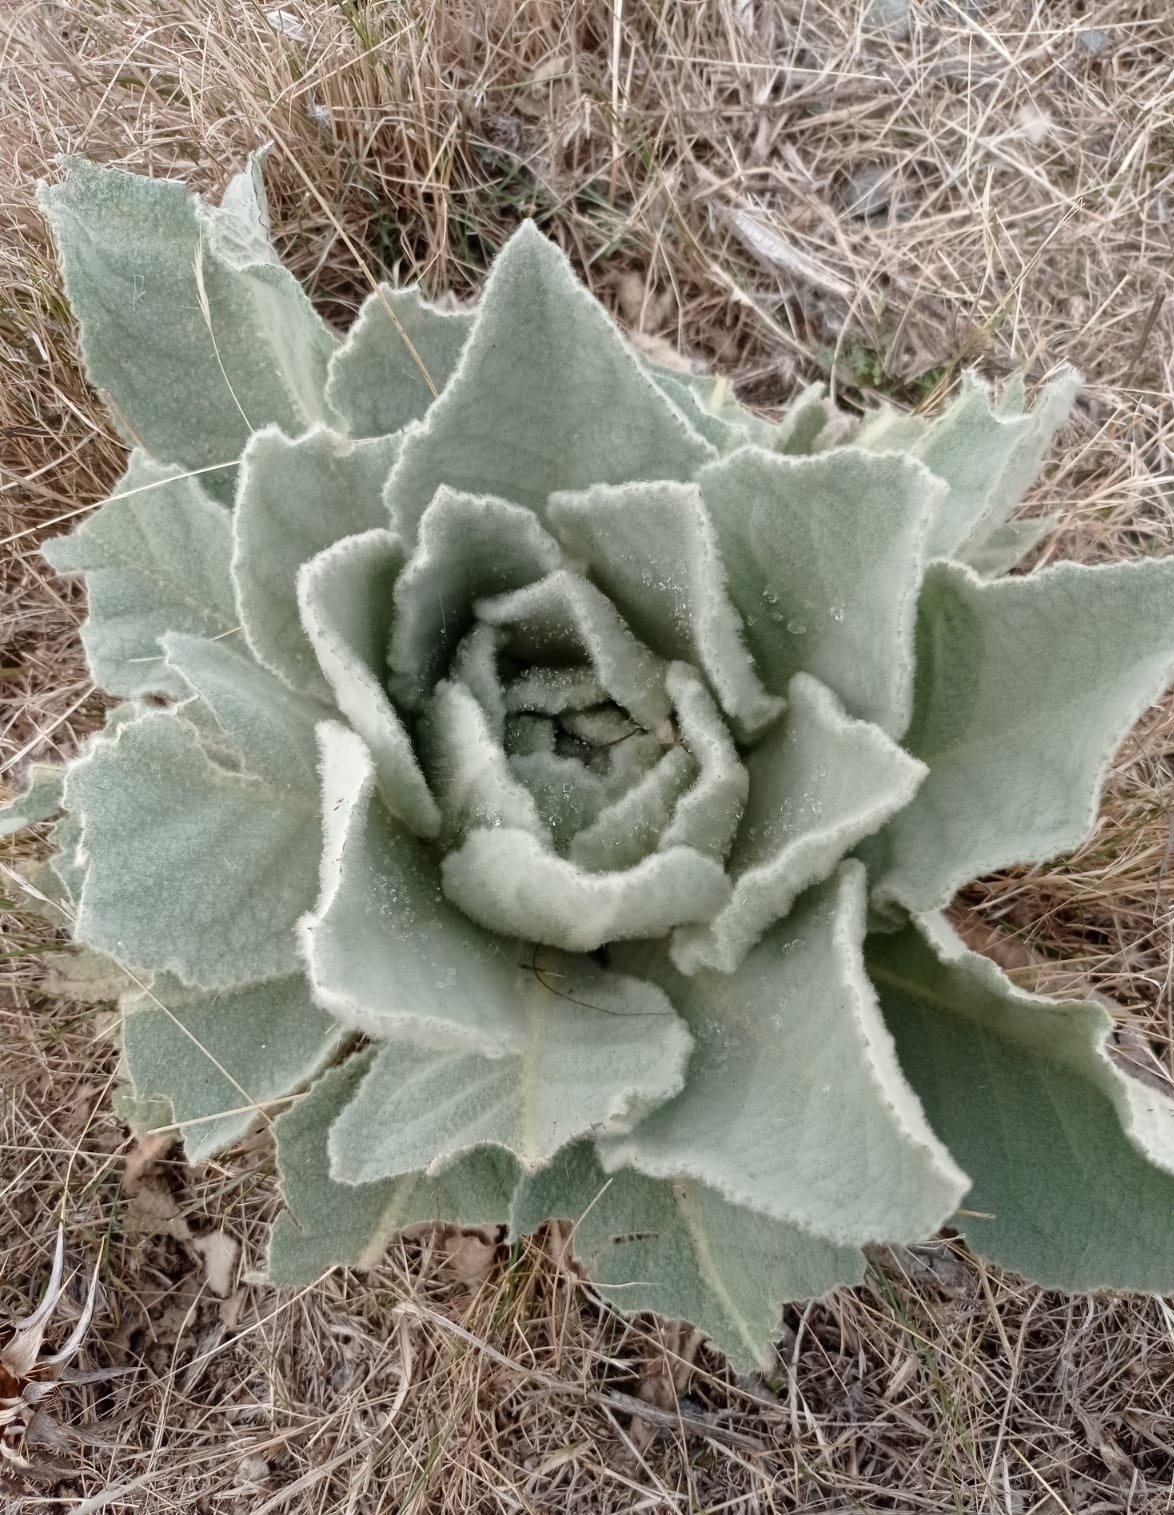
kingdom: Plantae
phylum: Tracheophyta
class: Magnoliopsida
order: Lamiales
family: Scrophulariaceae
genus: Verbascum
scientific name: Verbascum thapsus
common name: Common mullein
